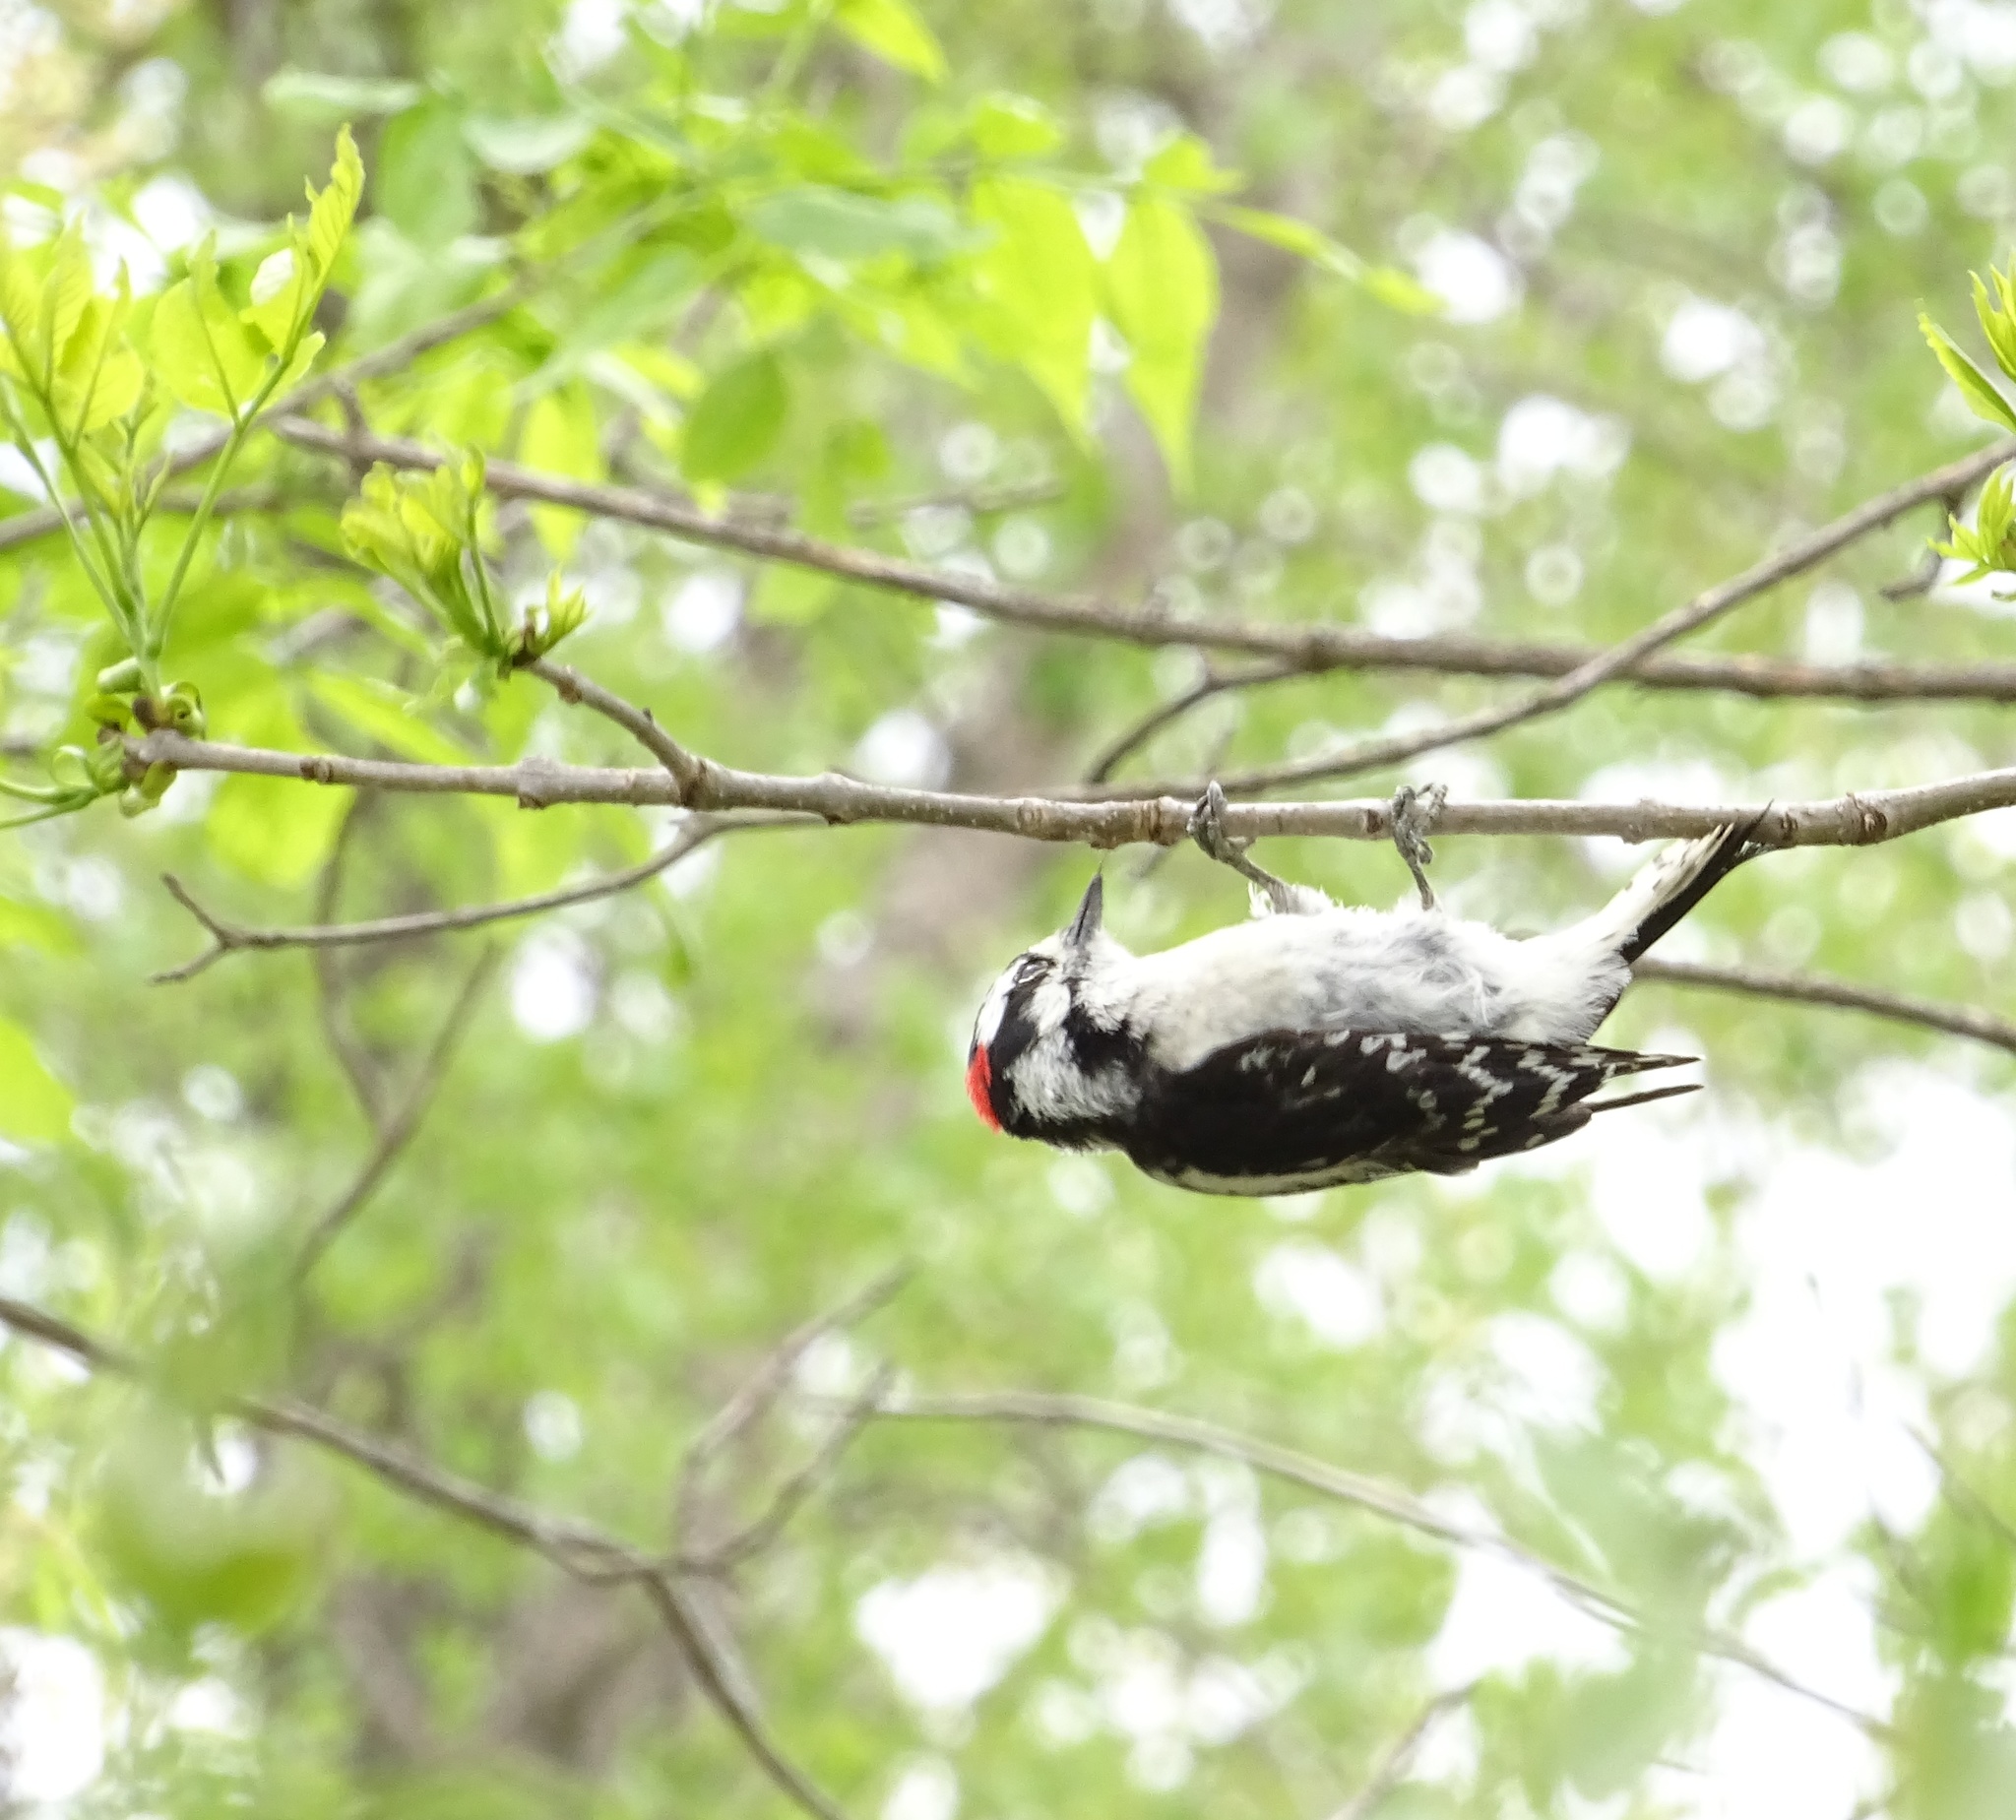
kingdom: Animalia
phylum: Chordata
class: Aves
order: Piciformes
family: Picidae
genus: Dryobates
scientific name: Dryobates pubescens
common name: Downy woodpecker
